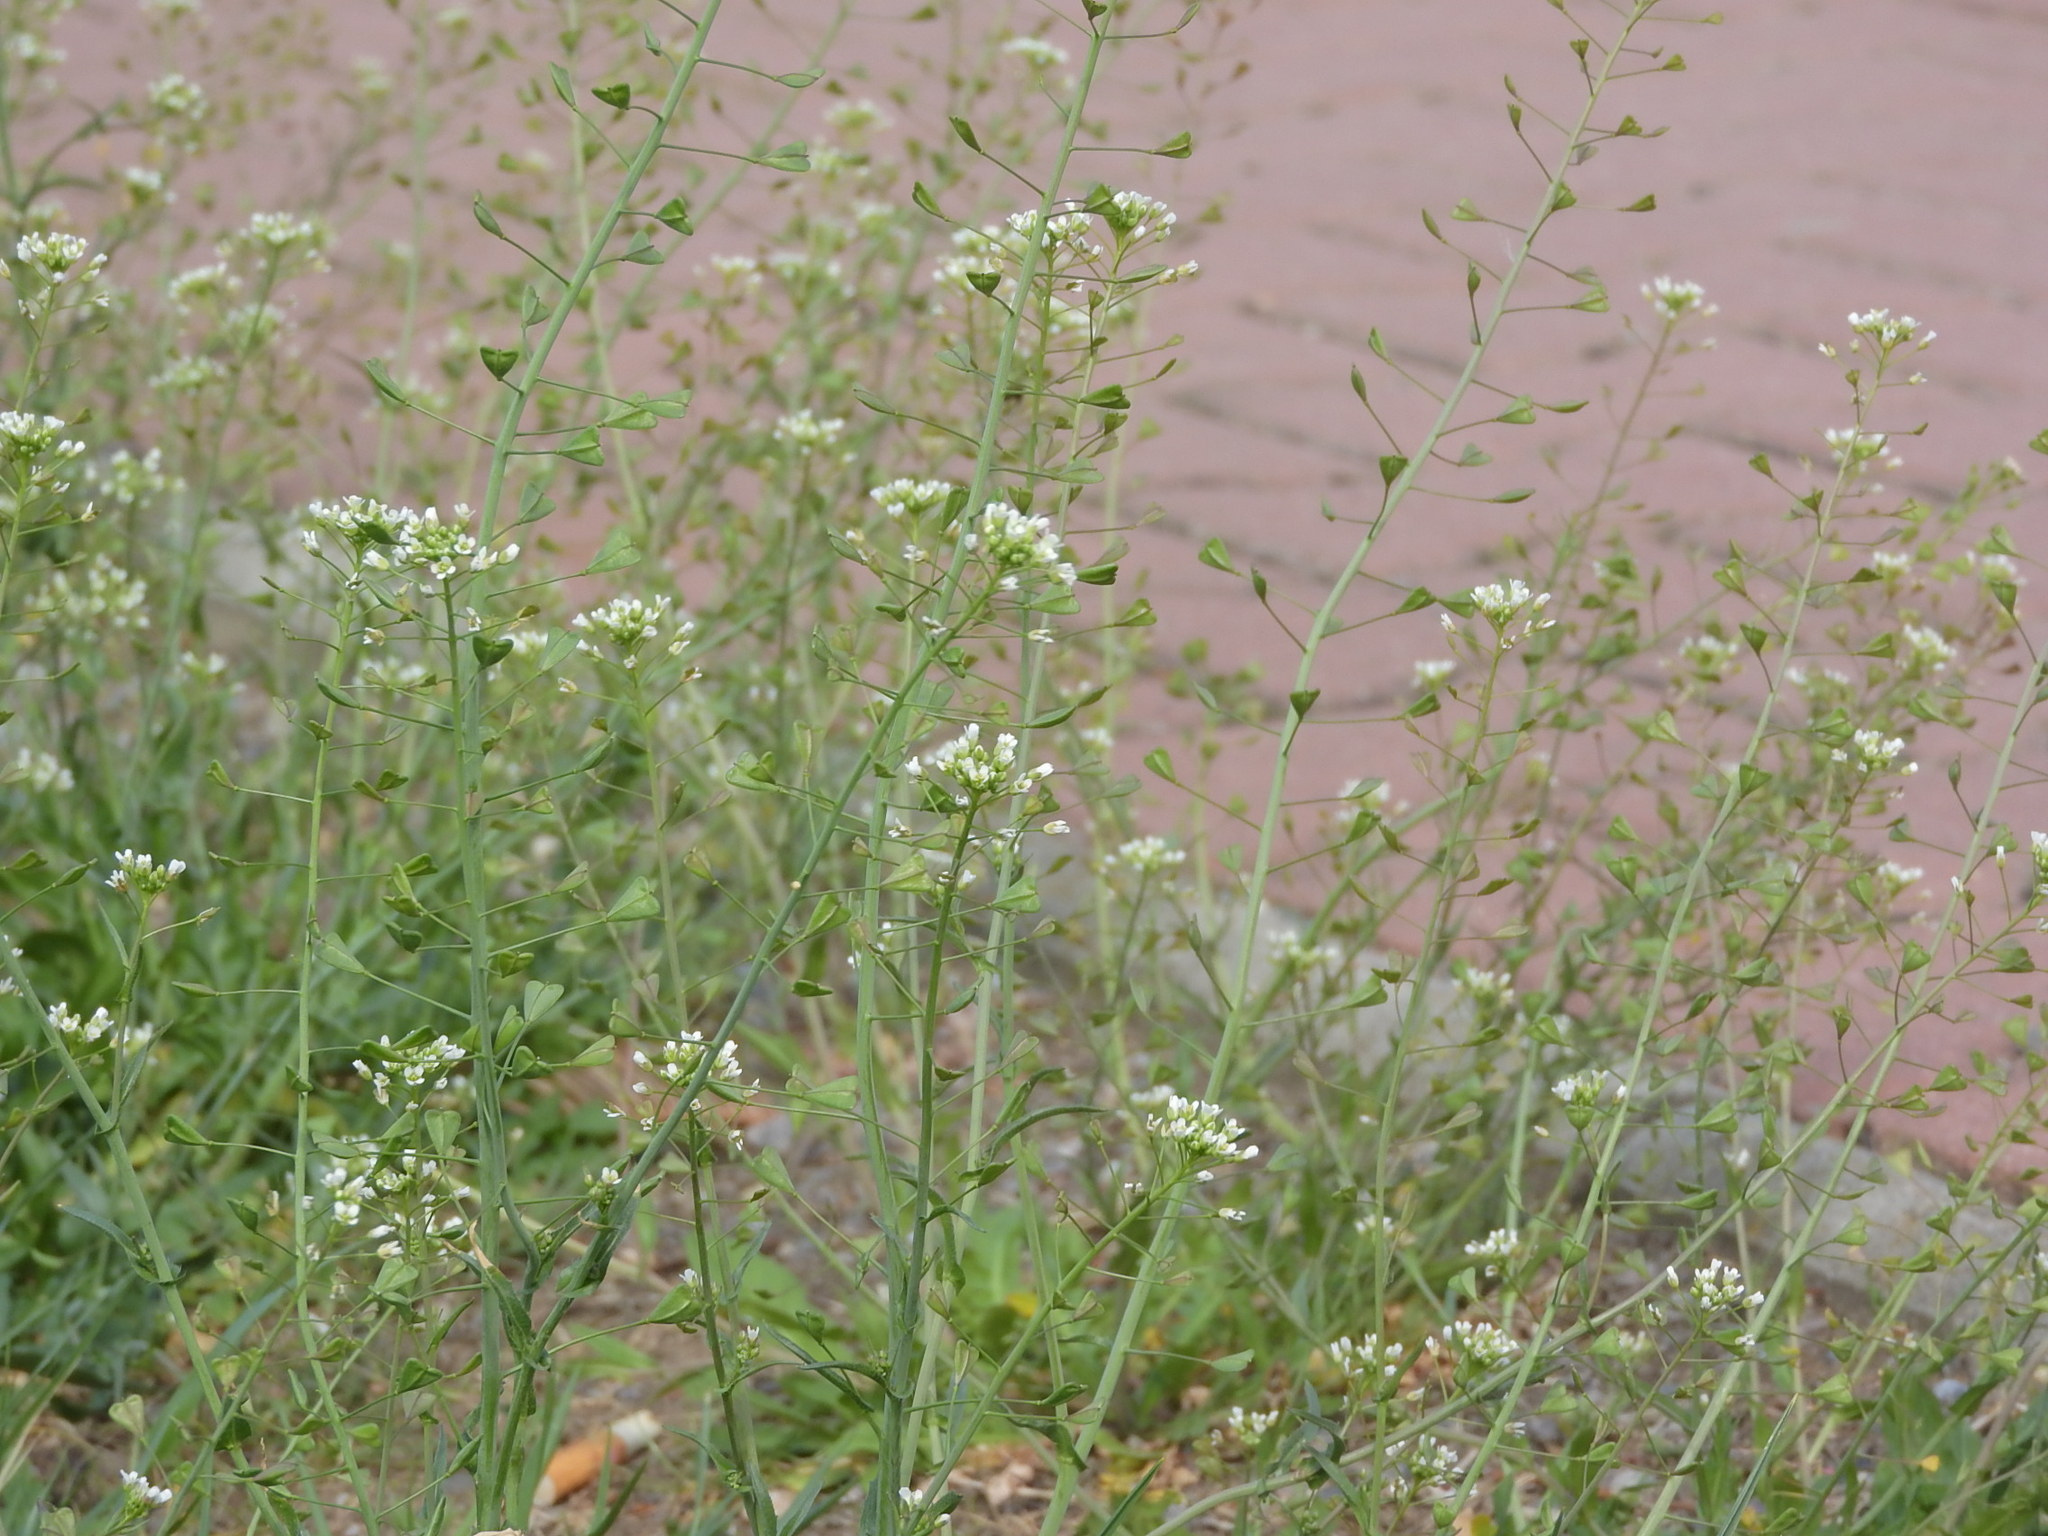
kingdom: Plantae
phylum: Tracheophyta
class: Magnoliopsida
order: Brassicales
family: Brassicaceae
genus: Capsella
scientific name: Capsella bursa-pastoris
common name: Shepherd's purse
